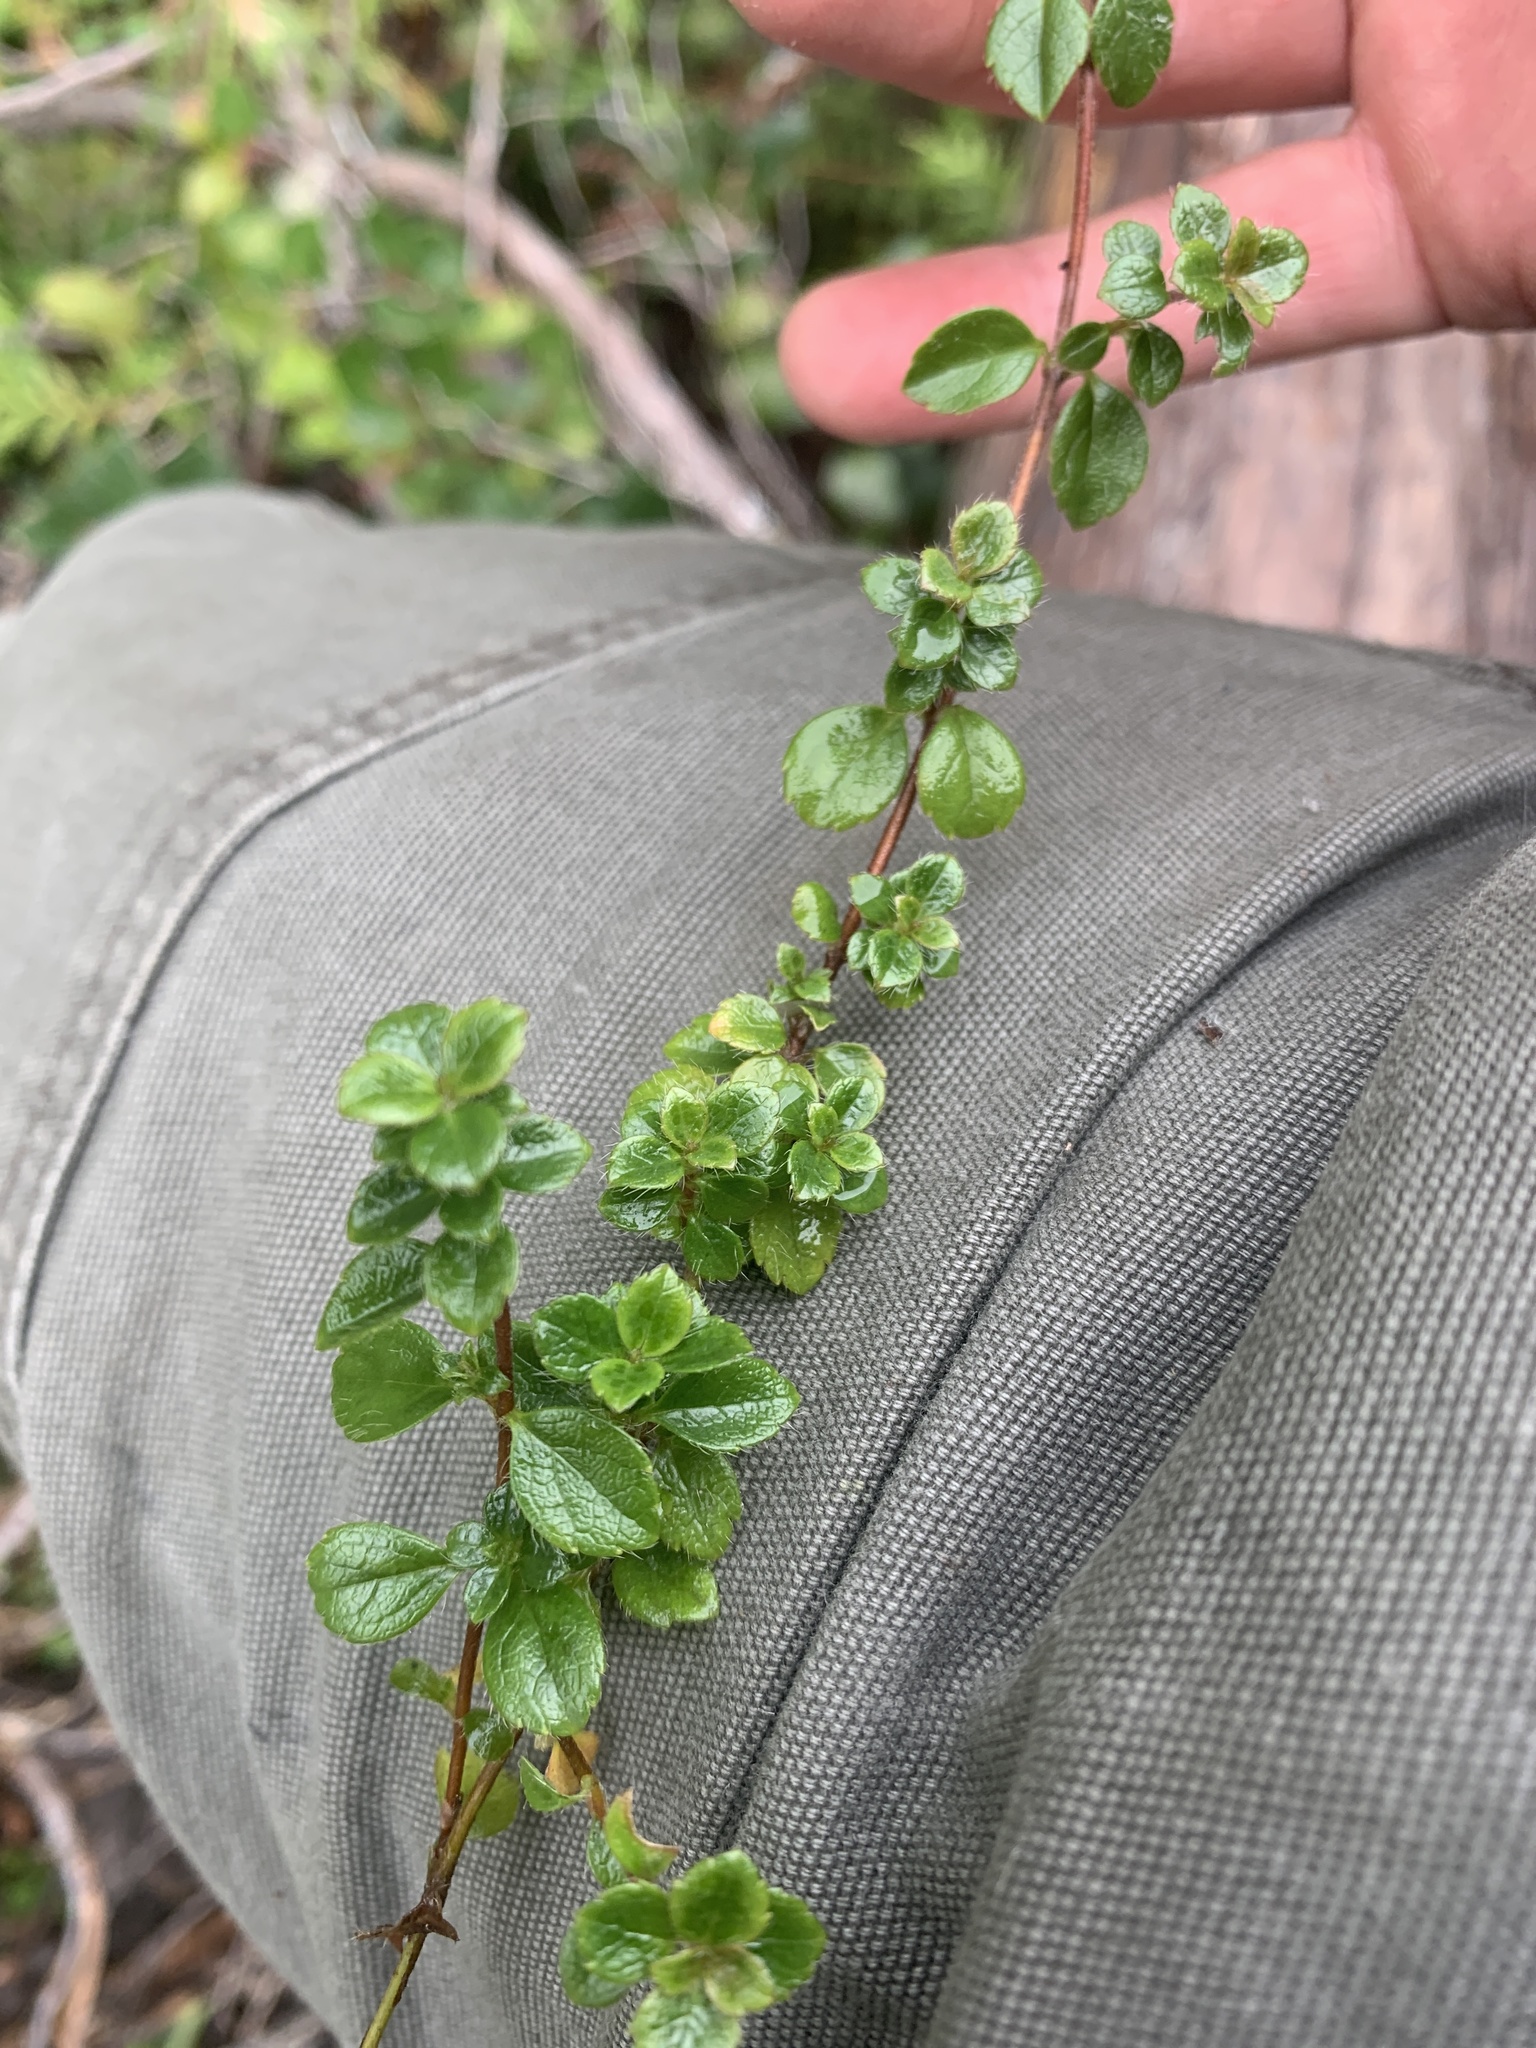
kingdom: Plantae
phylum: Tracheophyta
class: Magnoliopsida
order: Dipsacales
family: Caprifoliaceae
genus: Linnaea
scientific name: Linnaea borealis
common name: Twinflower
